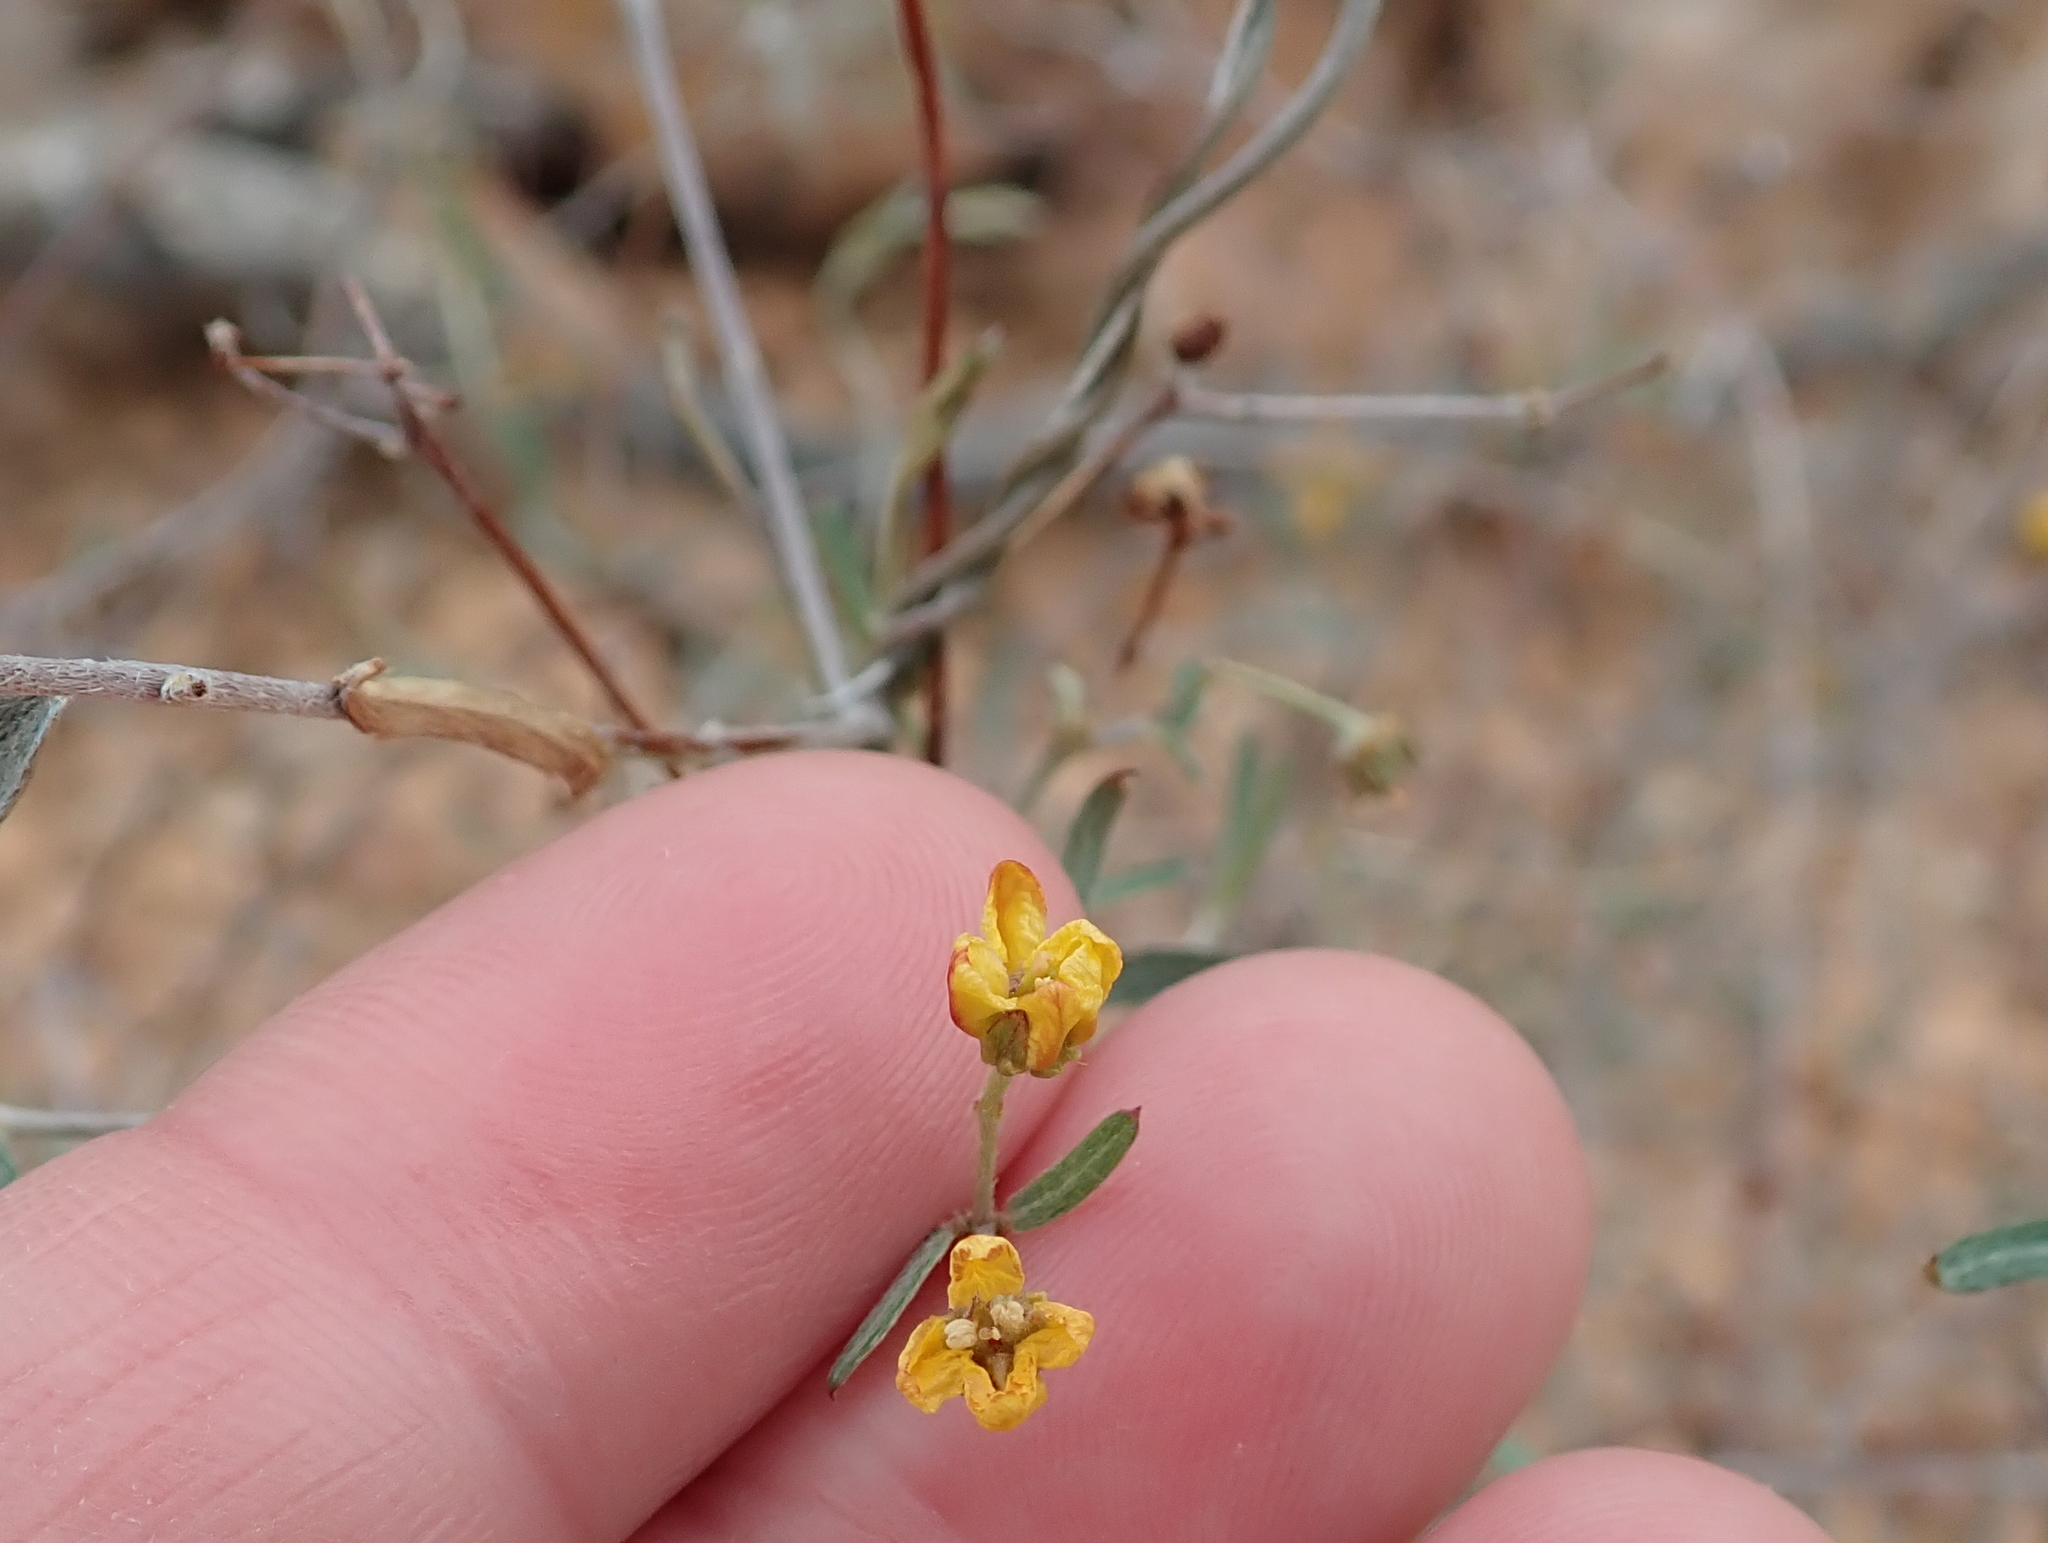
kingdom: Plantae
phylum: Tracheophyta
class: Magnoliopsida
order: Malpighiales
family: Malpighiaceae
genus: Cottsia
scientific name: Cottsia gracilis
